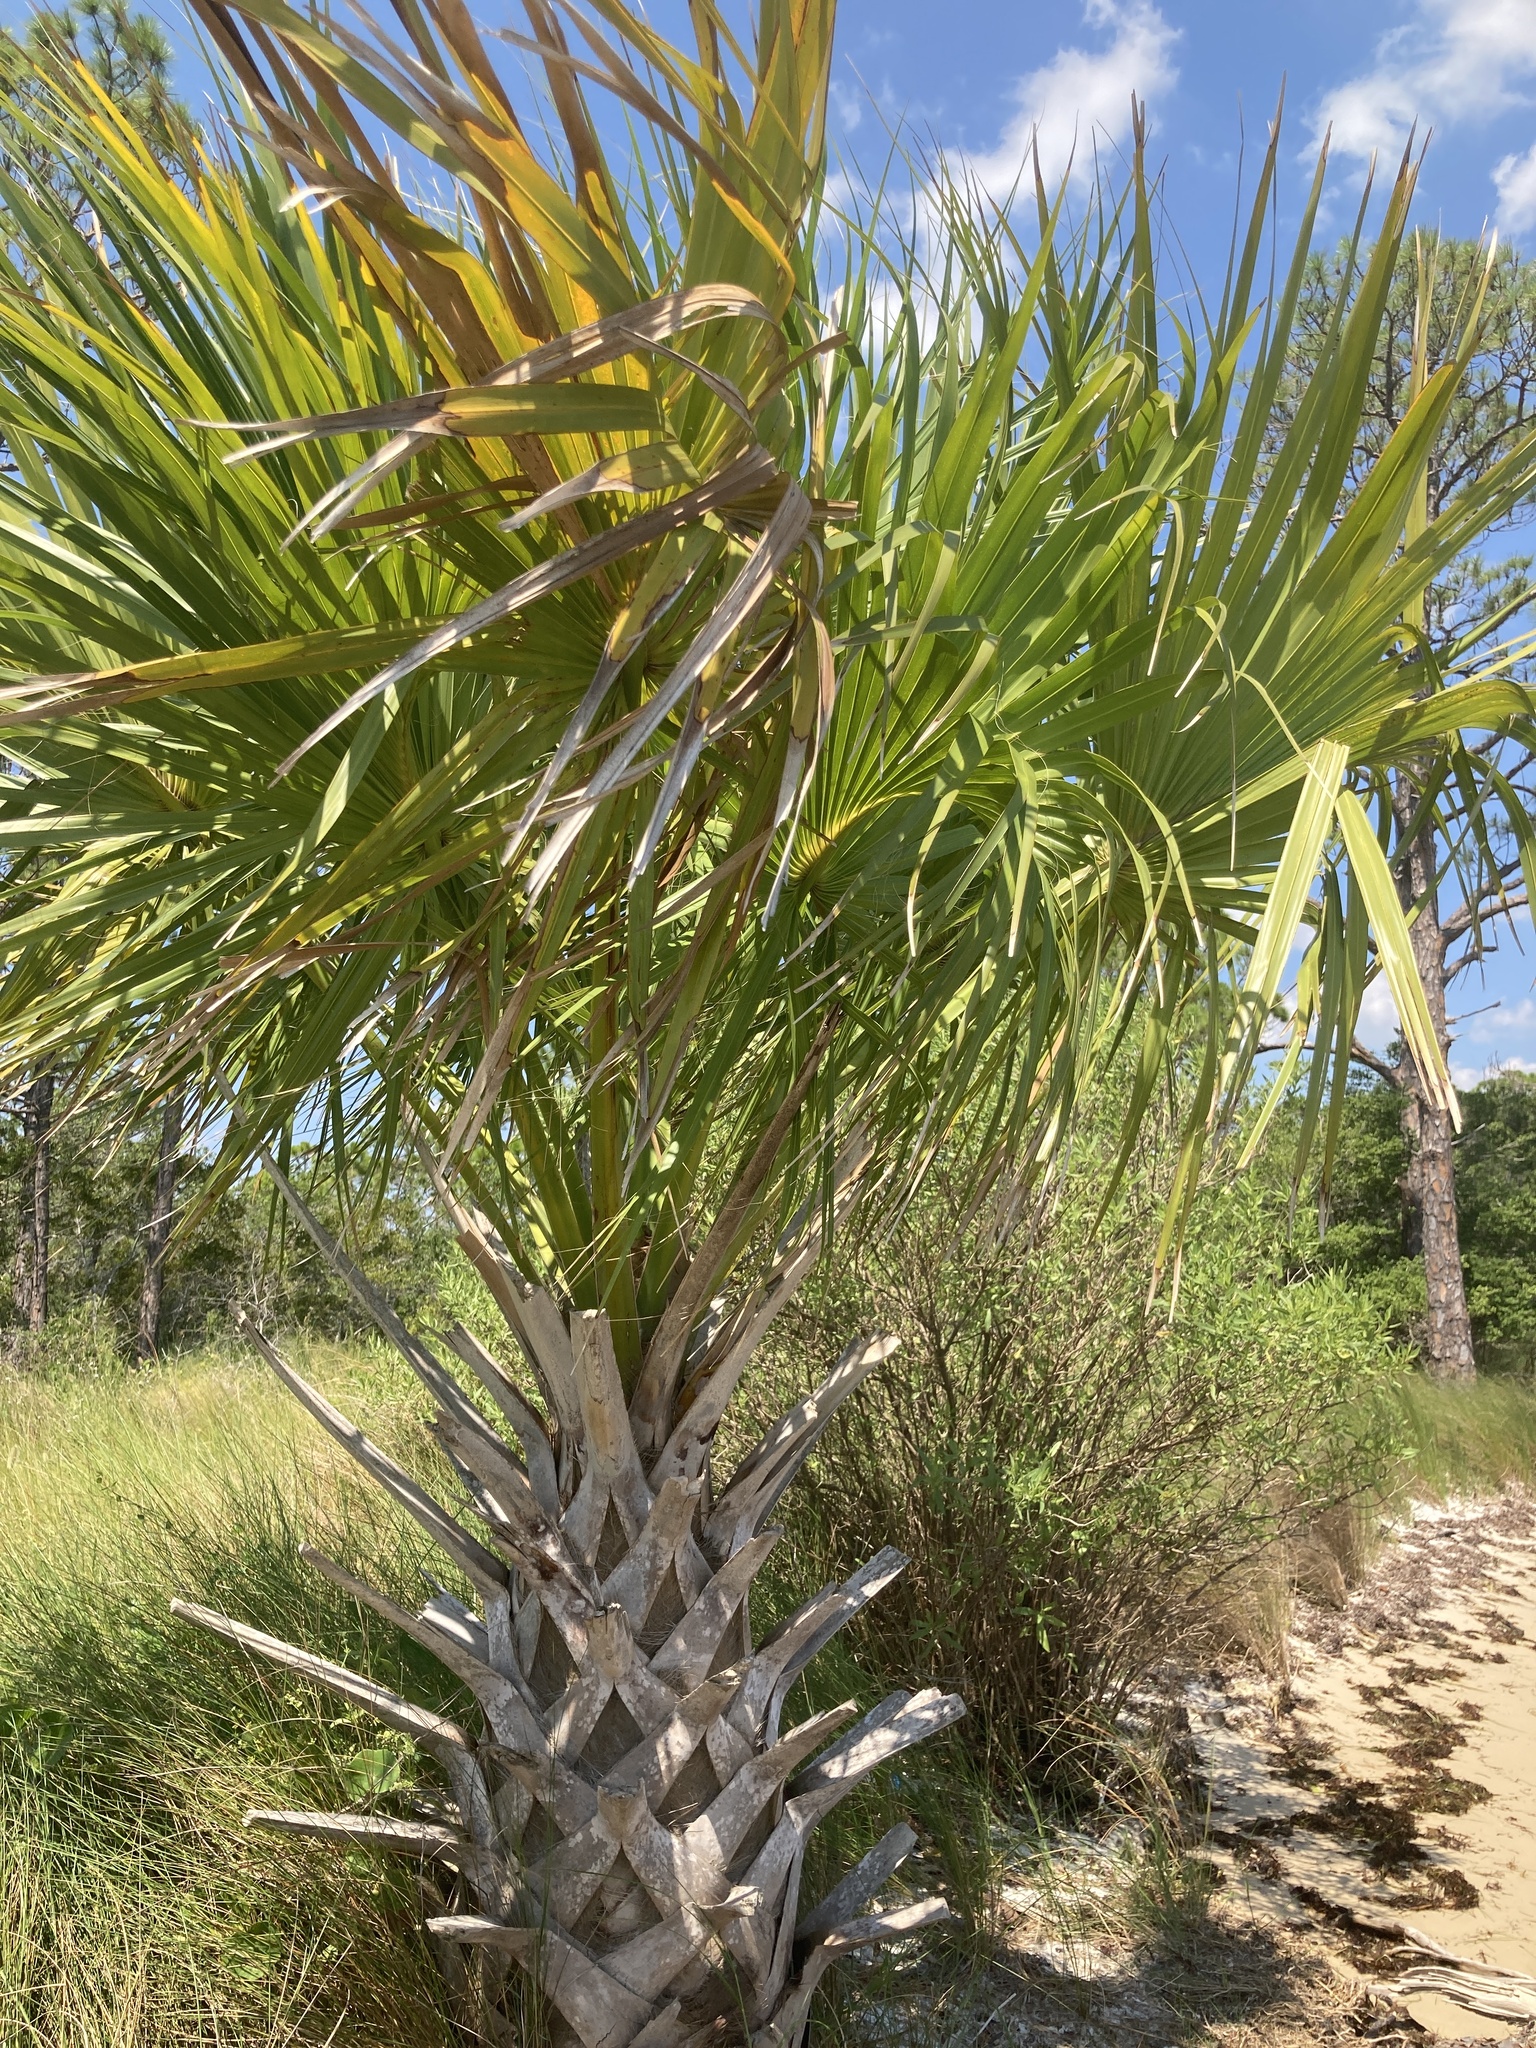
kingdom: Plantae
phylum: Tracheophyta
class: Liliopsida
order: Arecales
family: Arecaceae
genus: Sabal
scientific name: Sabal palmetto
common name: Blue palmetto
